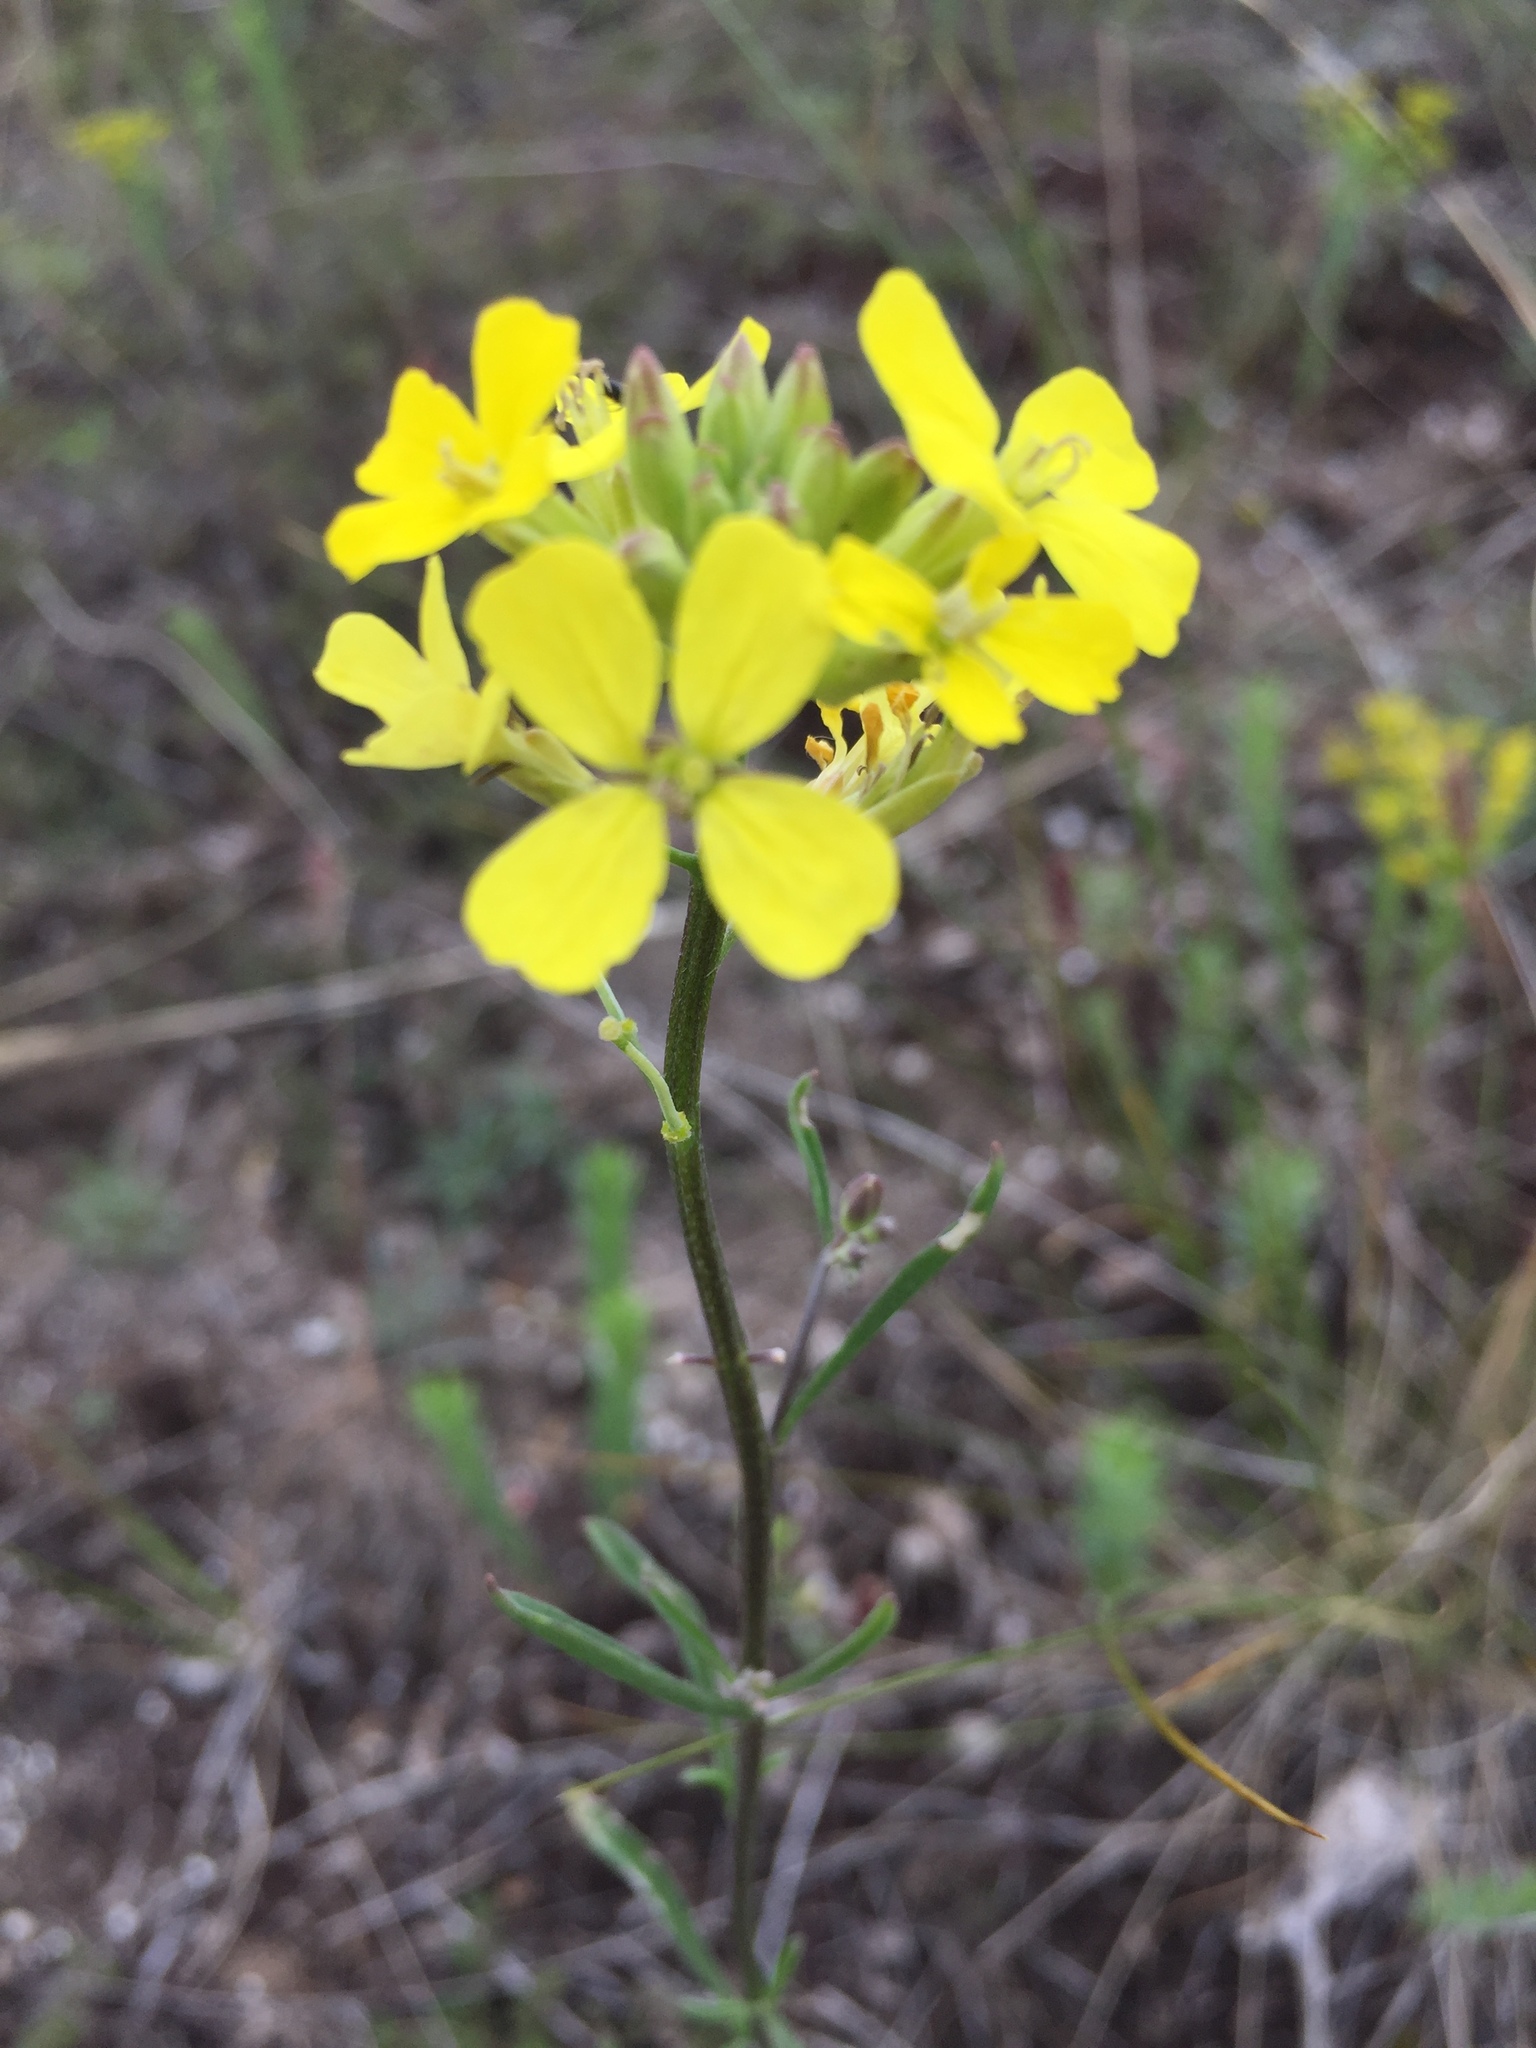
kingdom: Plantae
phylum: Tracheophyta
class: Magnoliopsida
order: Brassicales
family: Brassicaceae
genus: Erysimum
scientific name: Erysimum diffusum
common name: Diffuse wallflower
